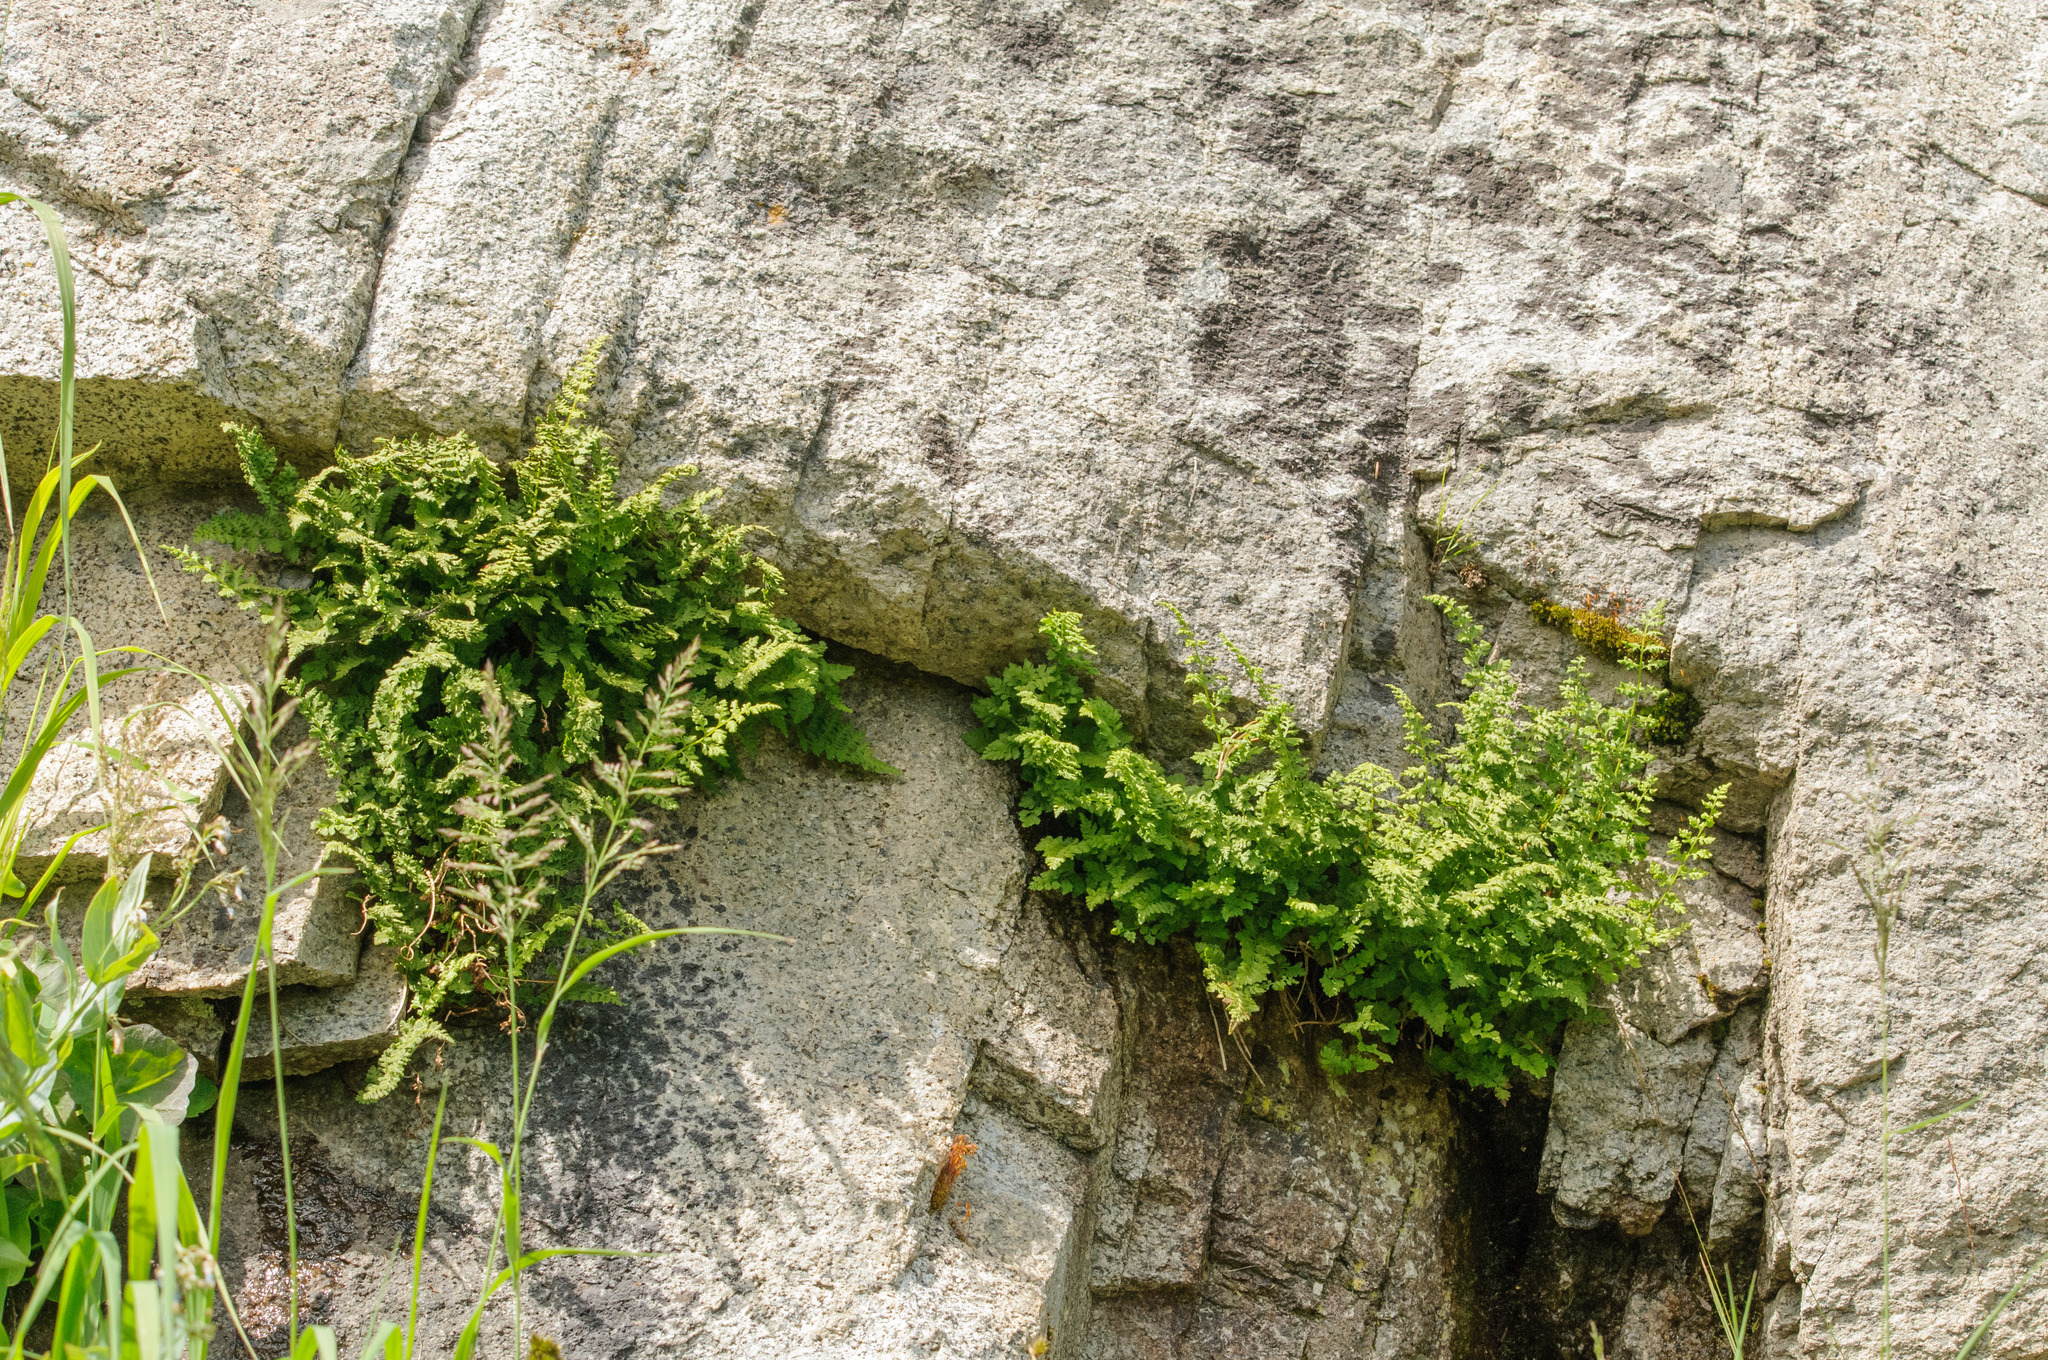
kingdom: Plantae
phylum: Tracheophyta
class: Polypodiopsida
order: Polypodiales
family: Cystopteridaceae
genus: Cystopteris
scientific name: Cystopteris fragilis
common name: Brittle bladder fern
